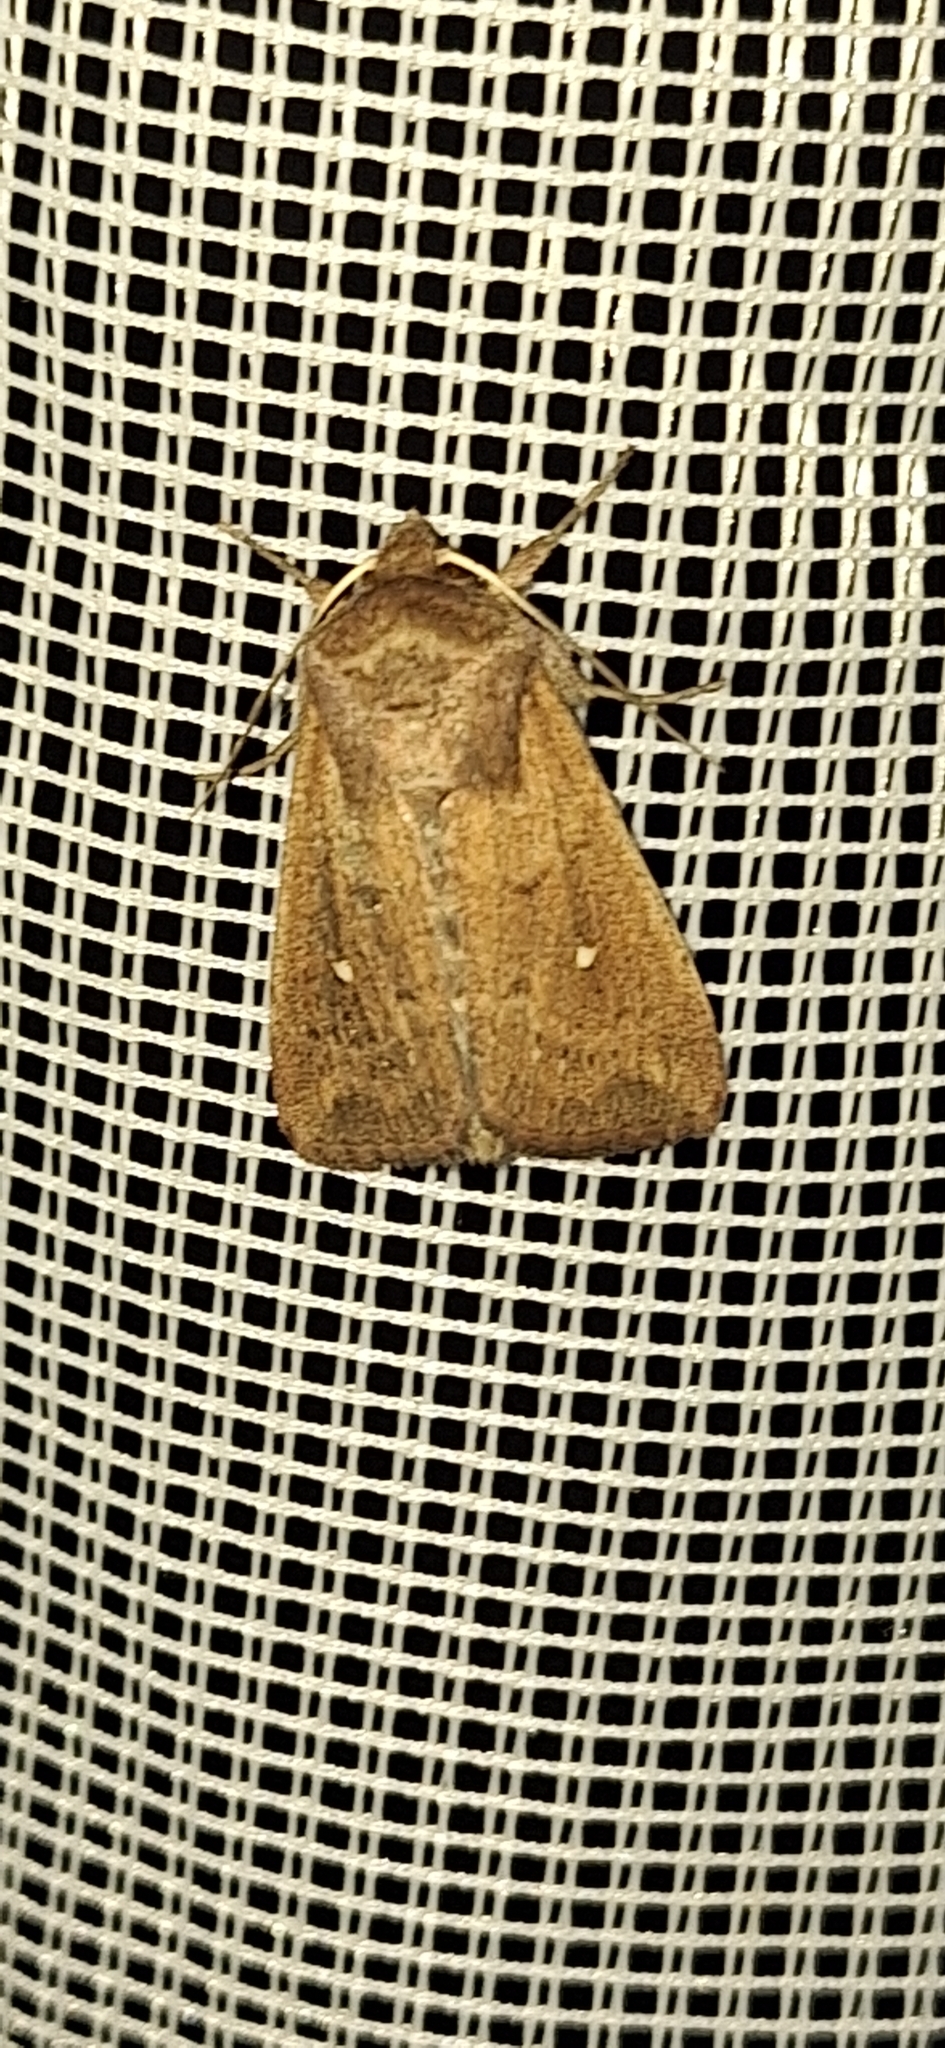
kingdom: Animalia
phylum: Arthropoda
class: Insecta
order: Lepidoptera
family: Noctuidae
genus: Mythimna
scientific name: Mythimna albipuncta
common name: White-point
